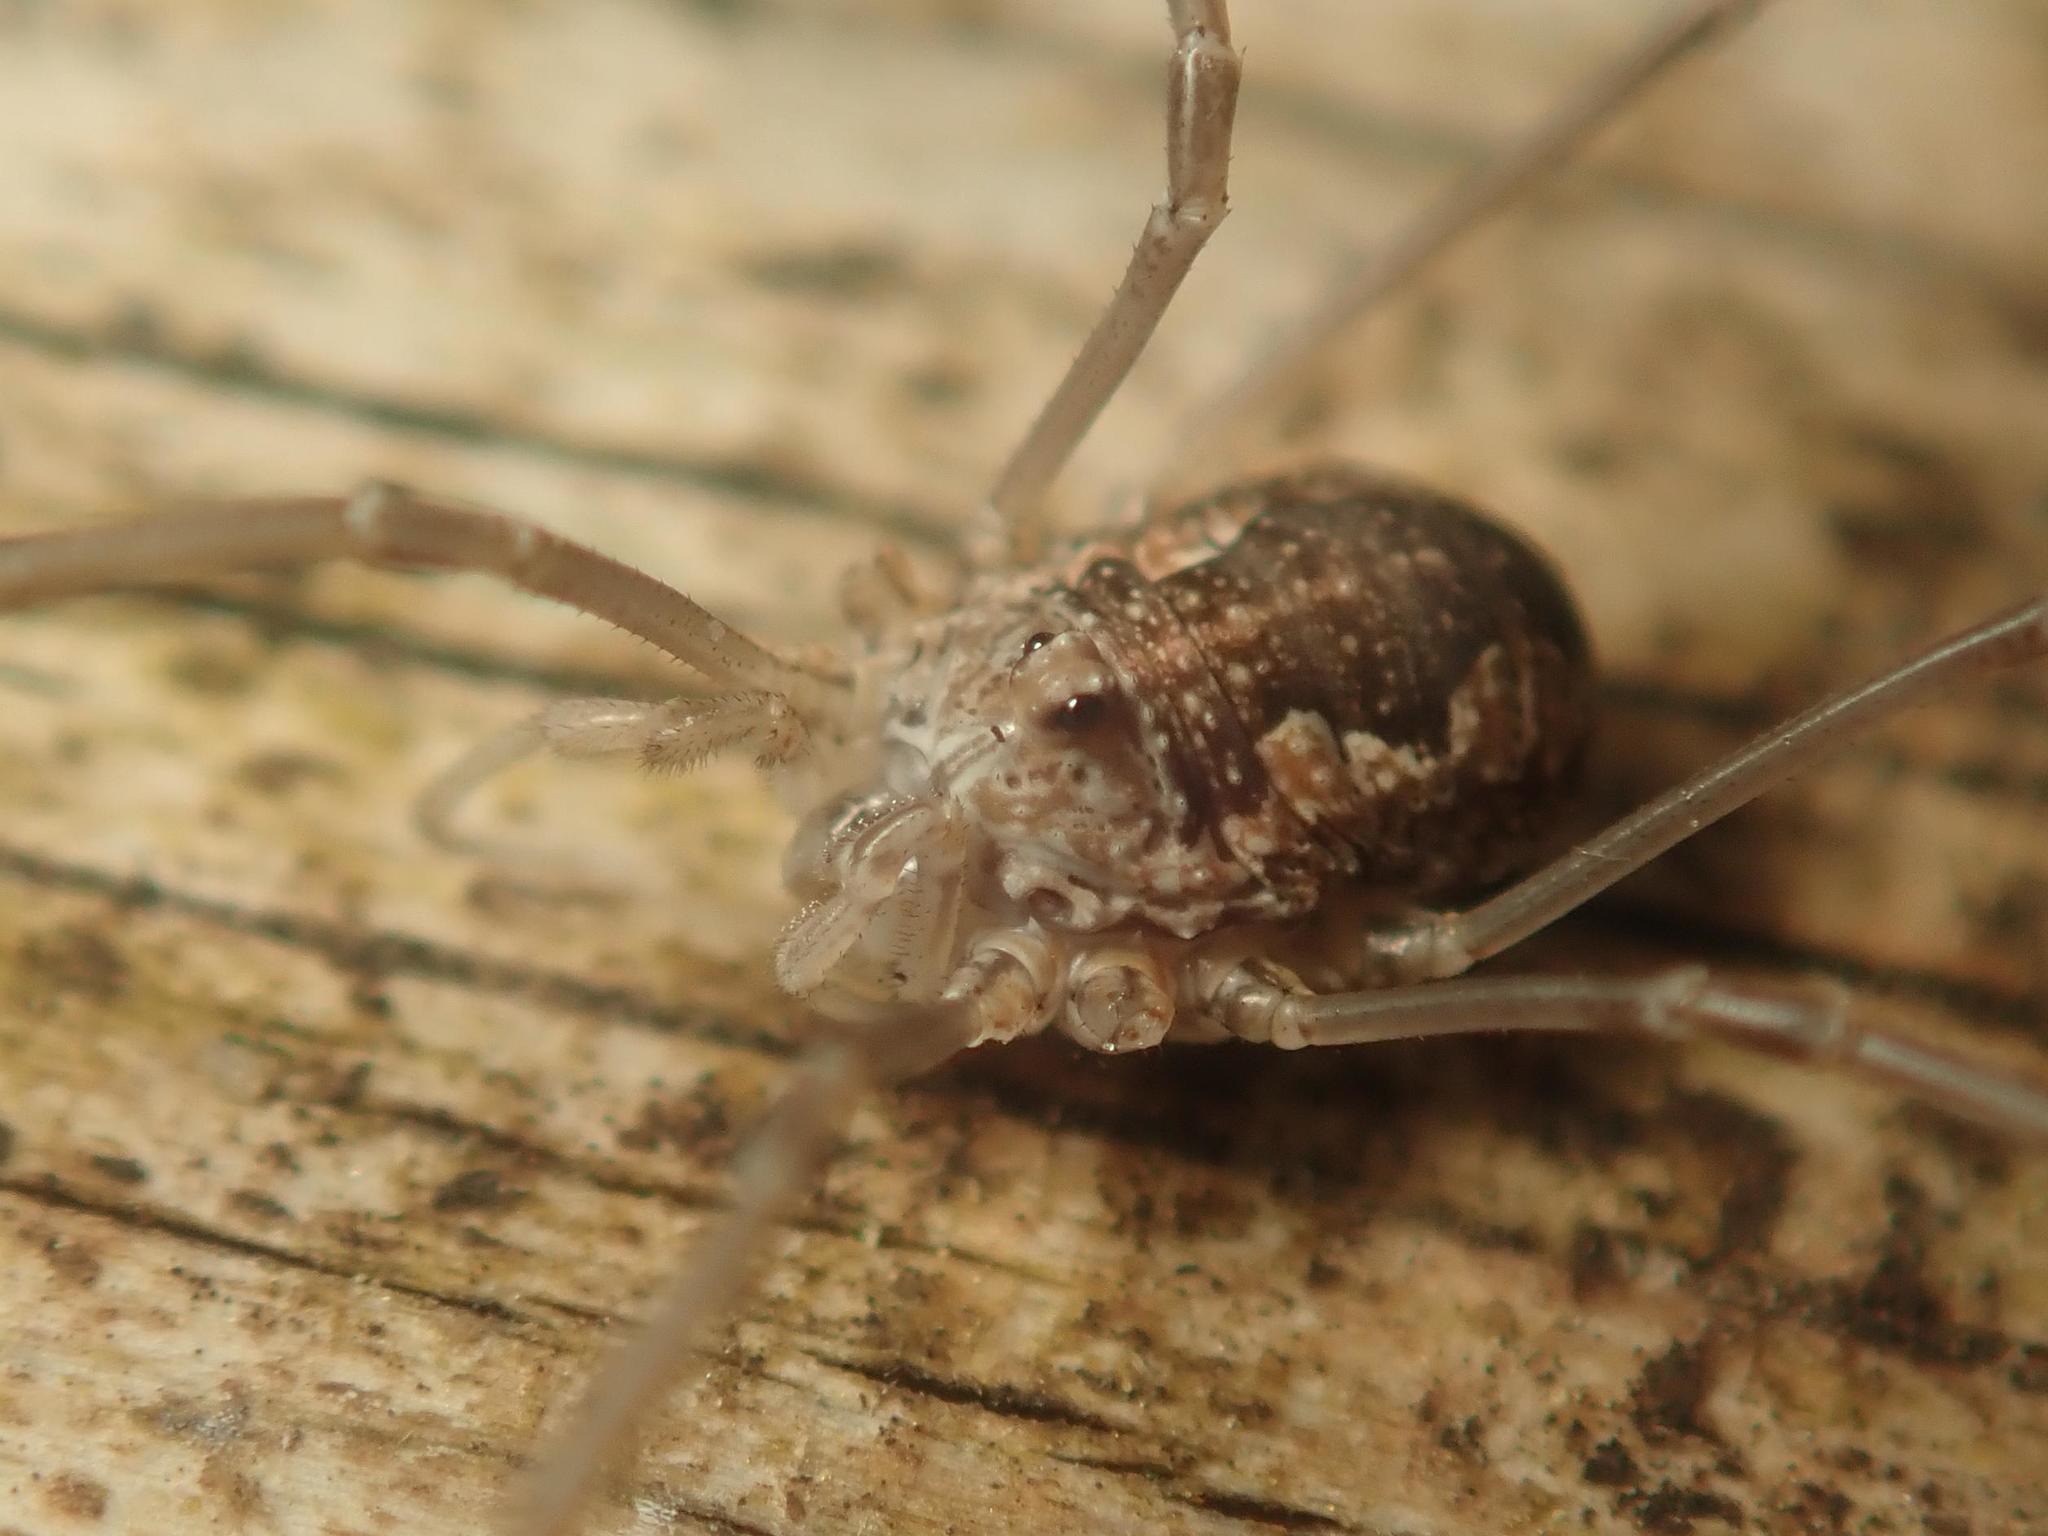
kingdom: Animalia
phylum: Arthropoda
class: Arachnida
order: Opiliones
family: Phalangiidae
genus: Phalangium
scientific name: Phalangium opilio
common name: Daddy longleg
